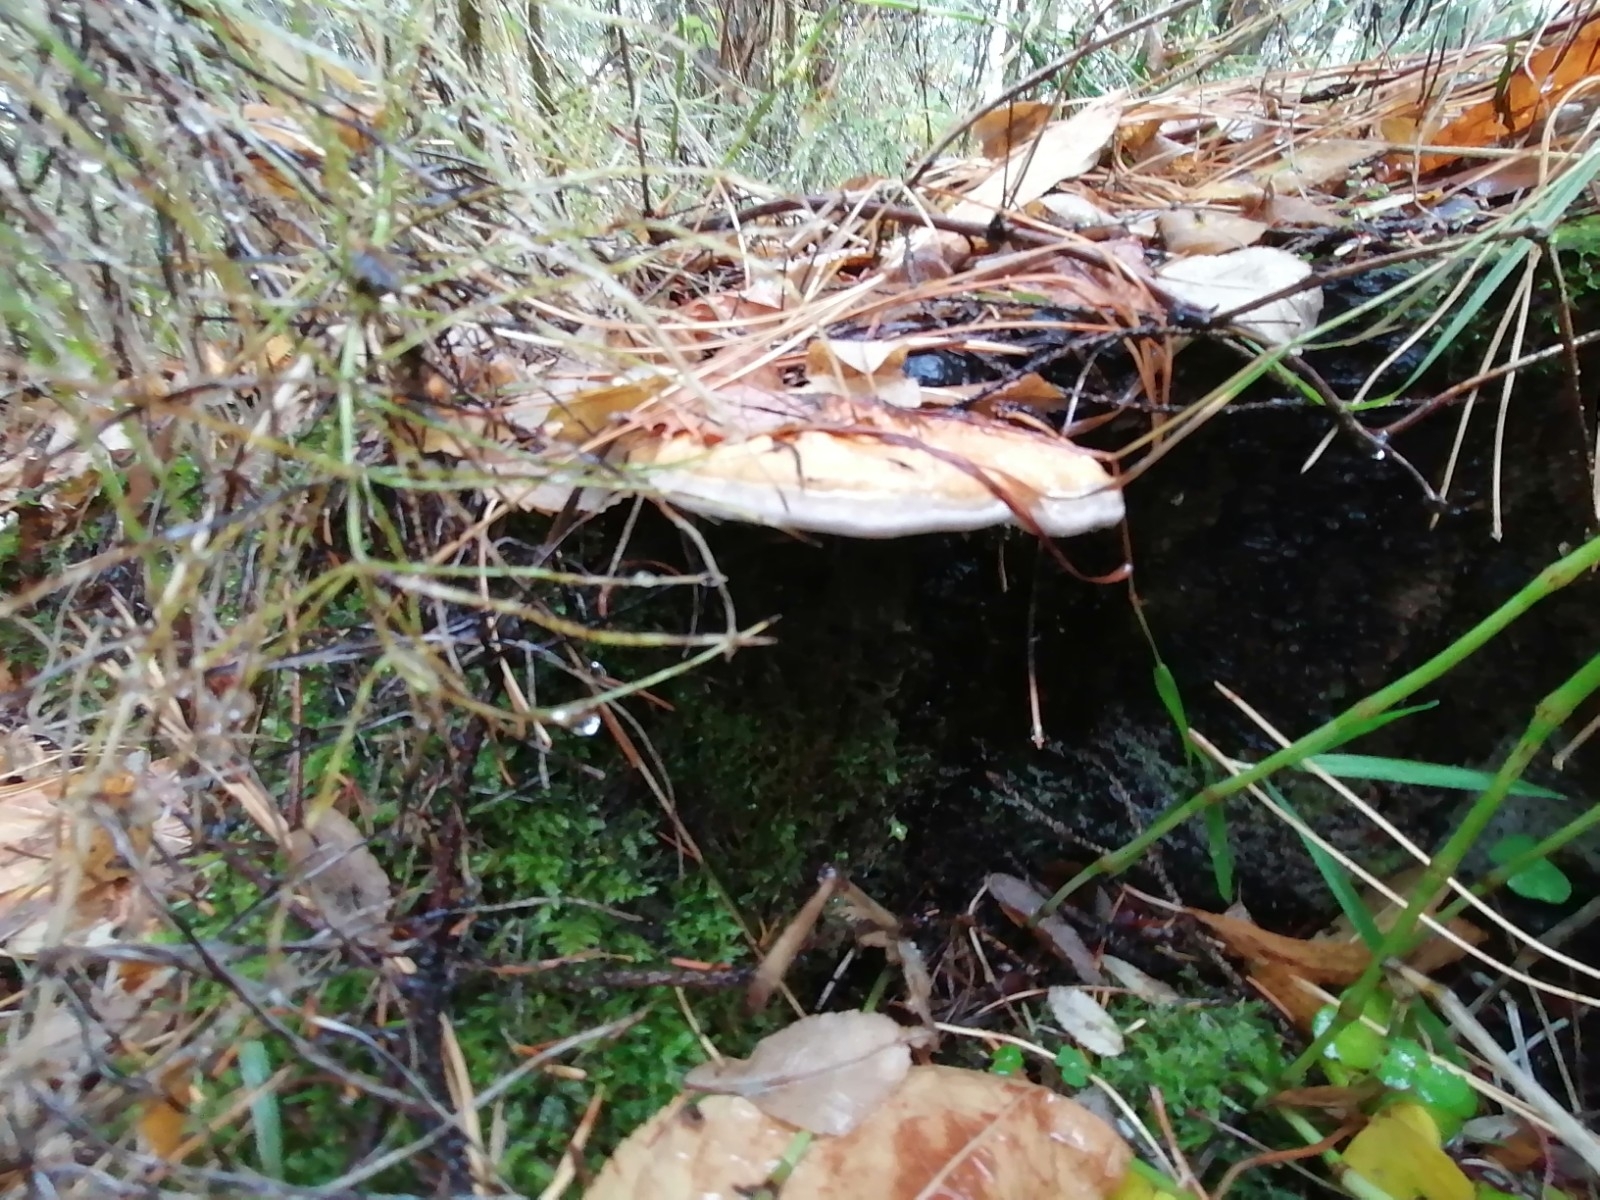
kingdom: Fungi
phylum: Basidiomycota
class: Agaricomycetes
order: Polyporales
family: Fomitopsidaceae
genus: Fomitopsis
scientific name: Fomitopsis pinicola
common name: Red-belted bracket
